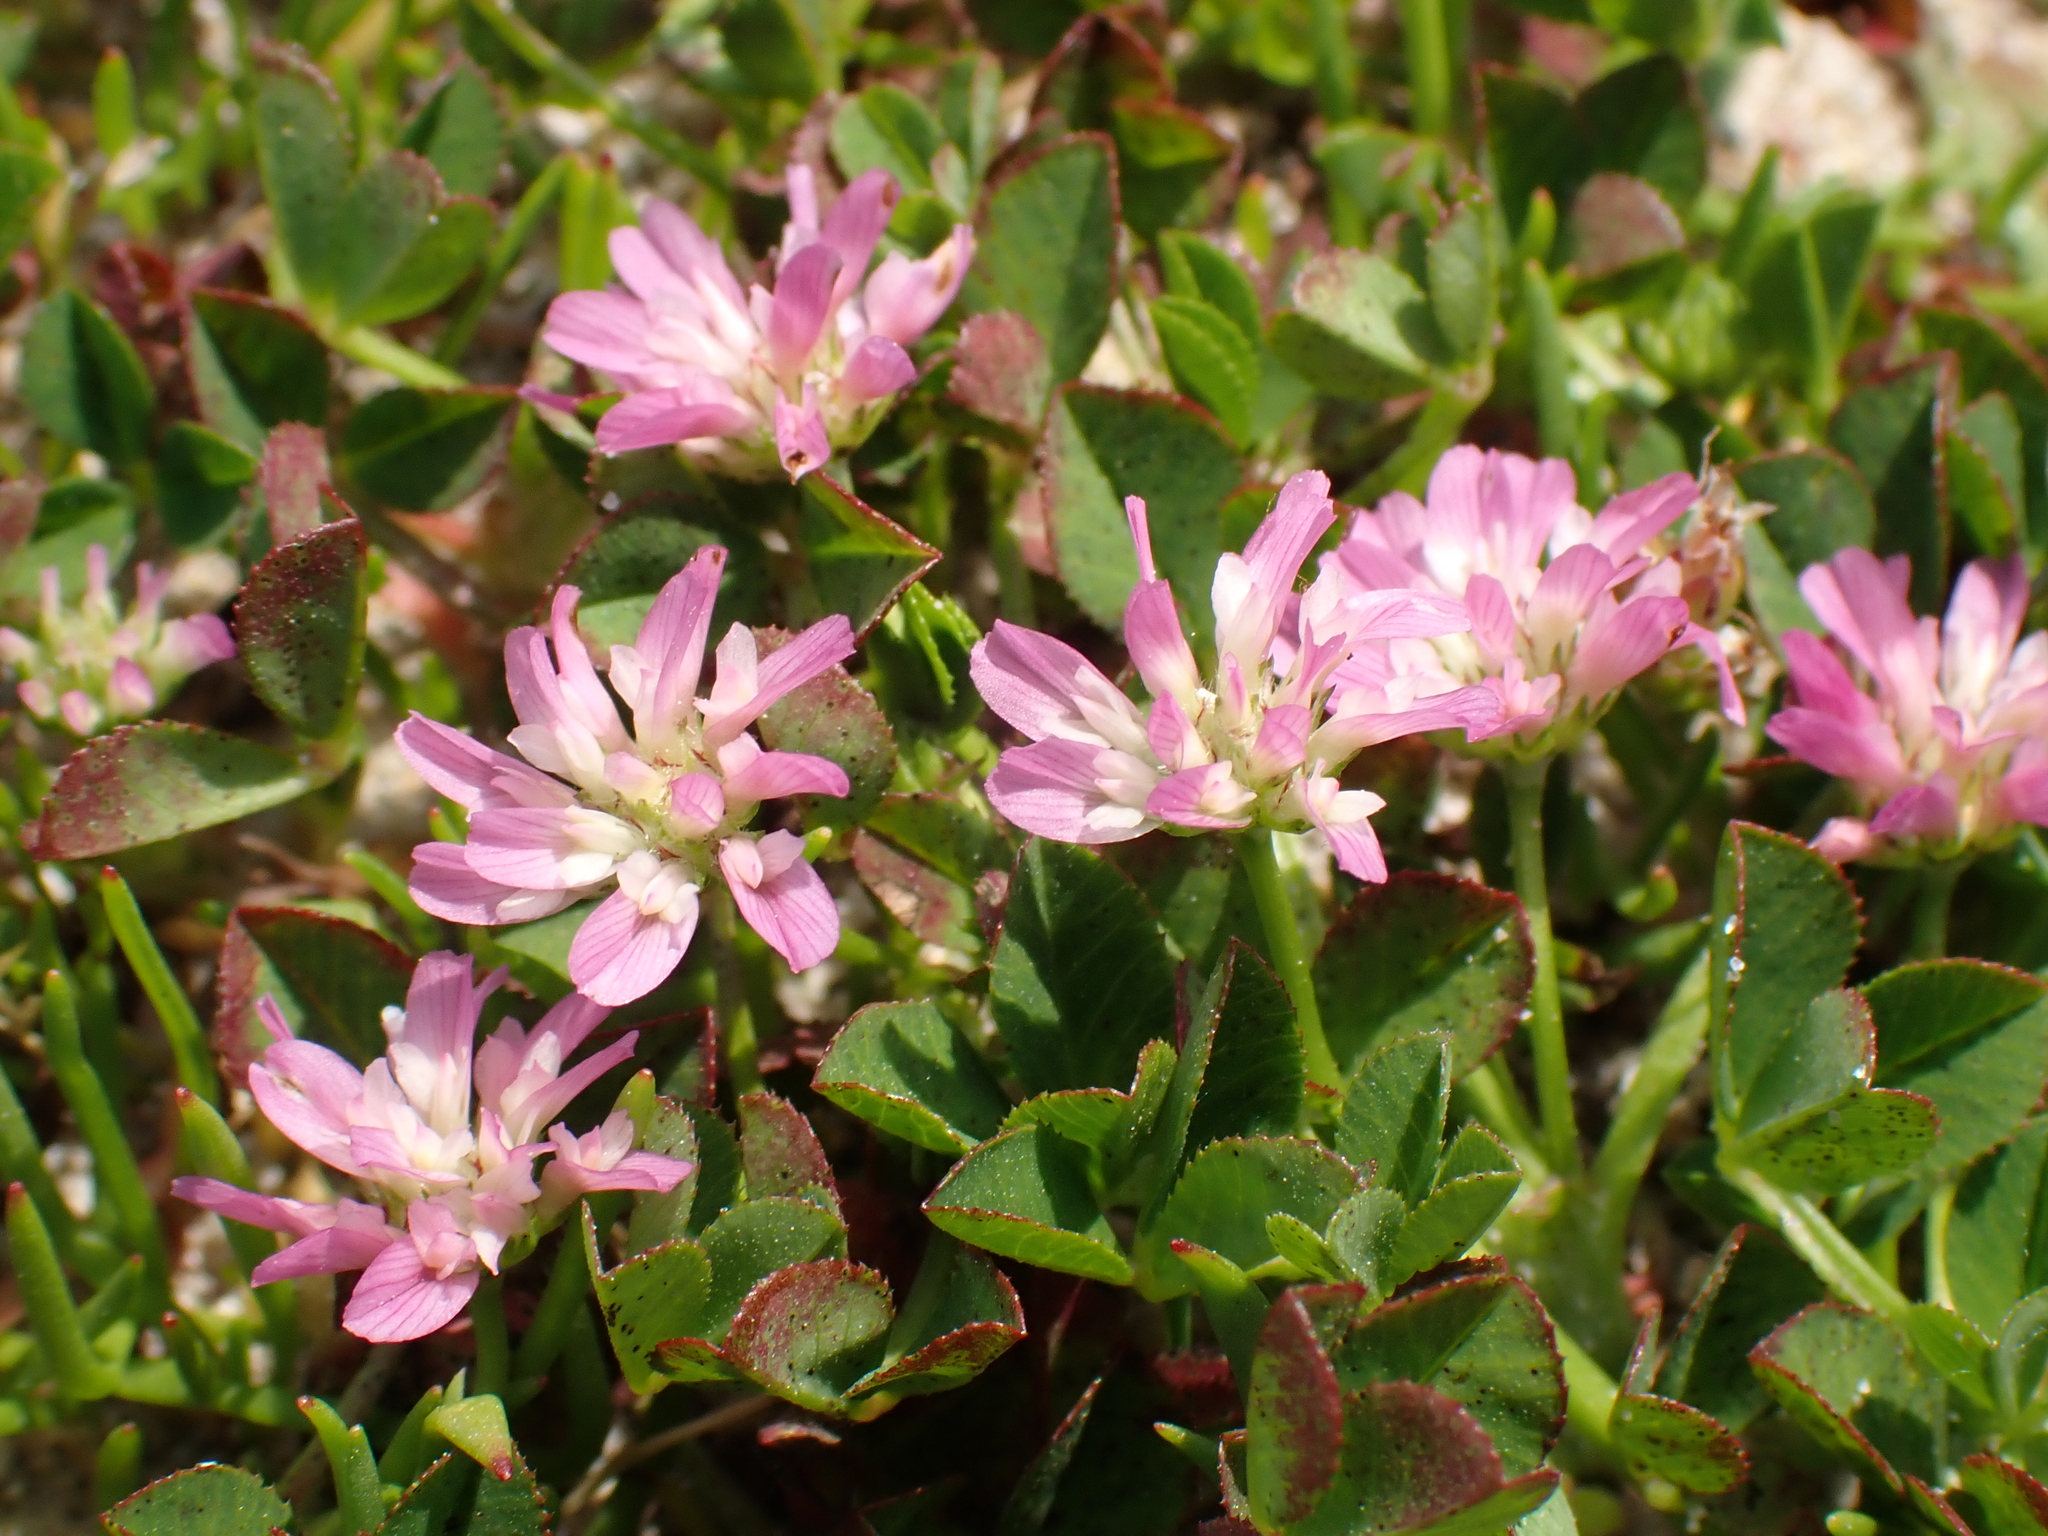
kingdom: Plantae
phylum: Tracheophyta
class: Magnoliopsida
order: Fabales
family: Fabaceae
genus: Trifolium
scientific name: Trifolium resupinatum
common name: Reversed clover
